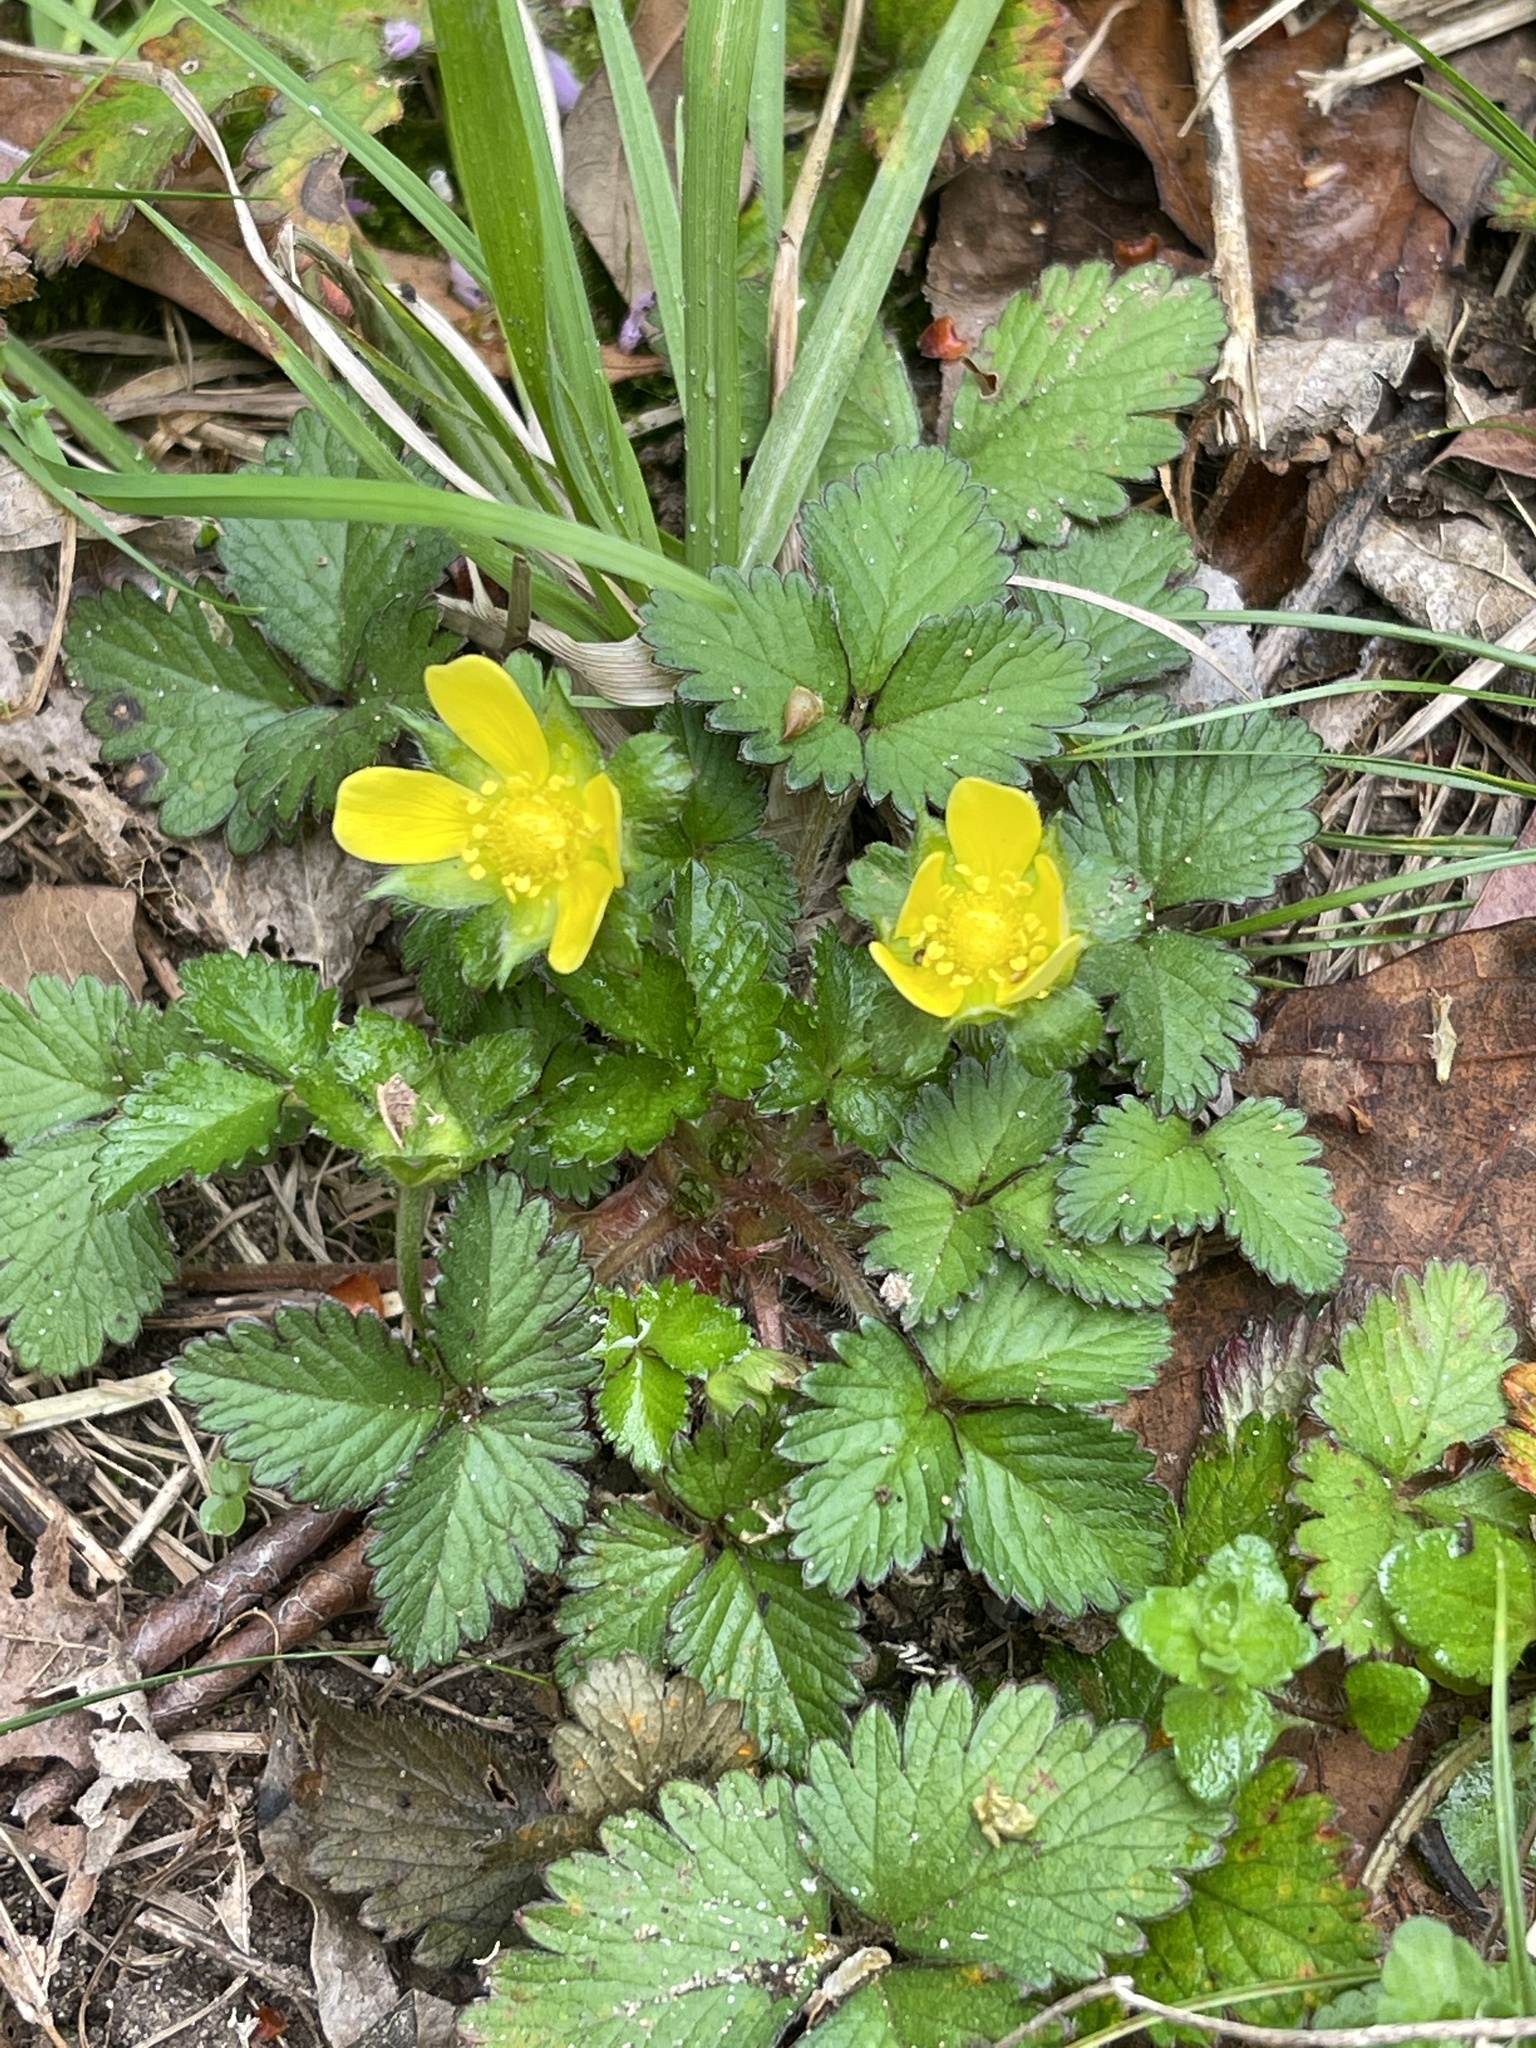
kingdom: Plantae
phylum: Tracheophyta
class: Magnoliopsida
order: Rosales
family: Rosaceae
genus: Potentilla
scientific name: Potentilla indica
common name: Yellow-flowered strawberry
